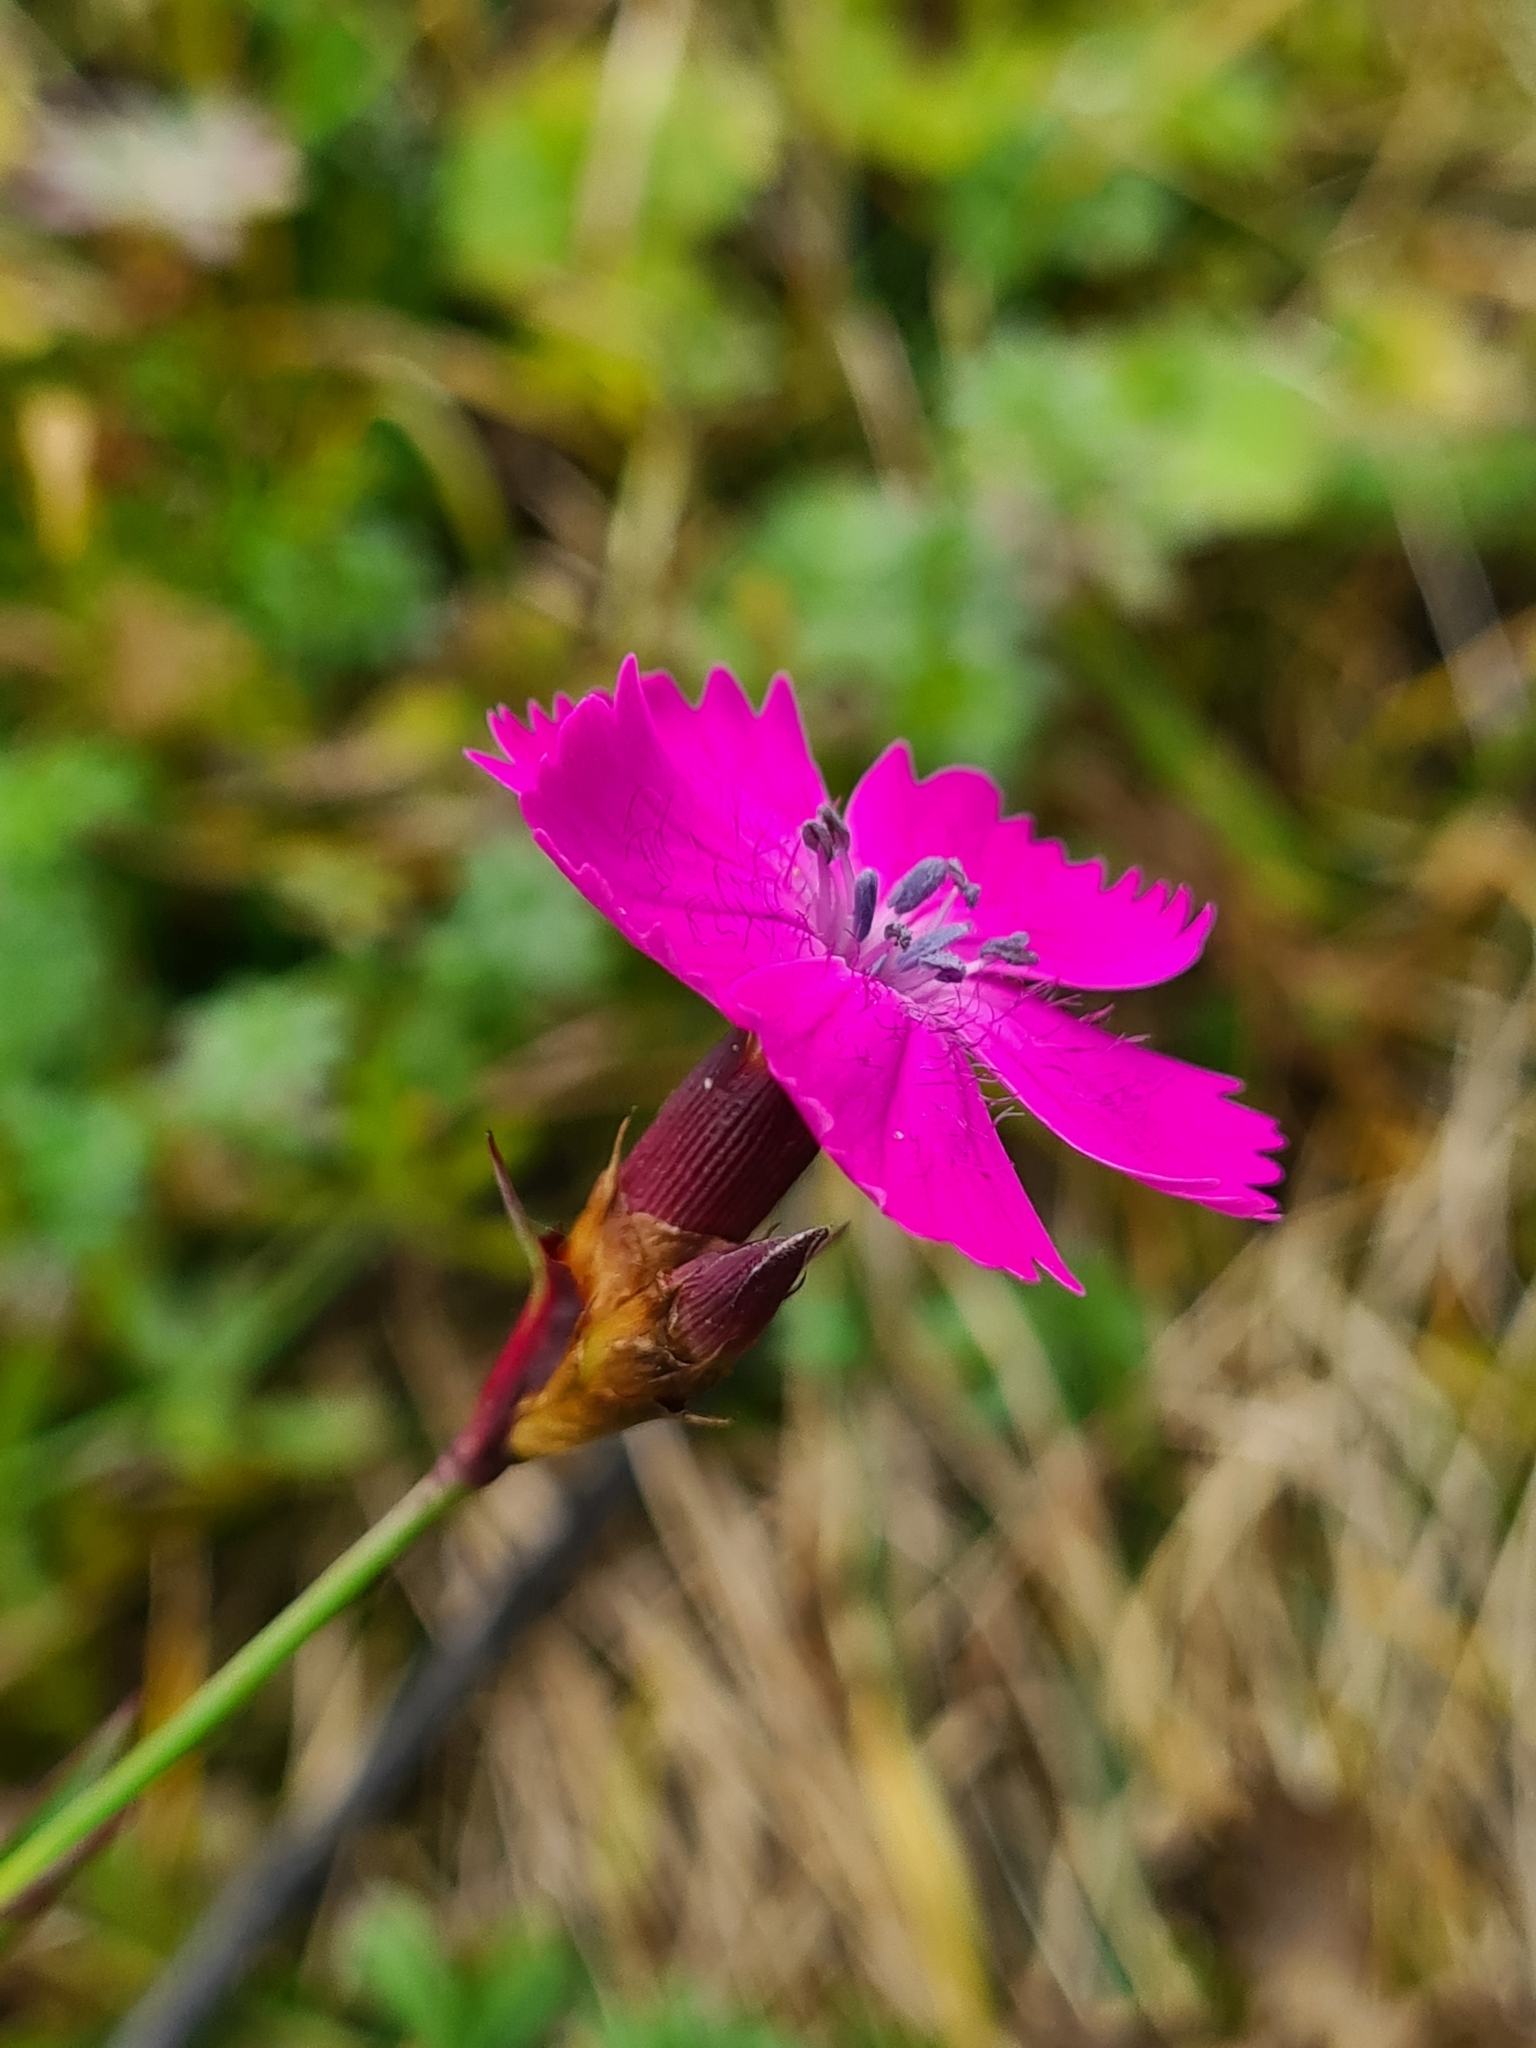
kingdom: Plantae
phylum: Tracheophyta
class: Magnoliopsida
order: Caryophyllales
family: Caryophyllaceae
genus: Dianthus
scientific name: Dianthus carthusianorum
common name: Carthusian pink
